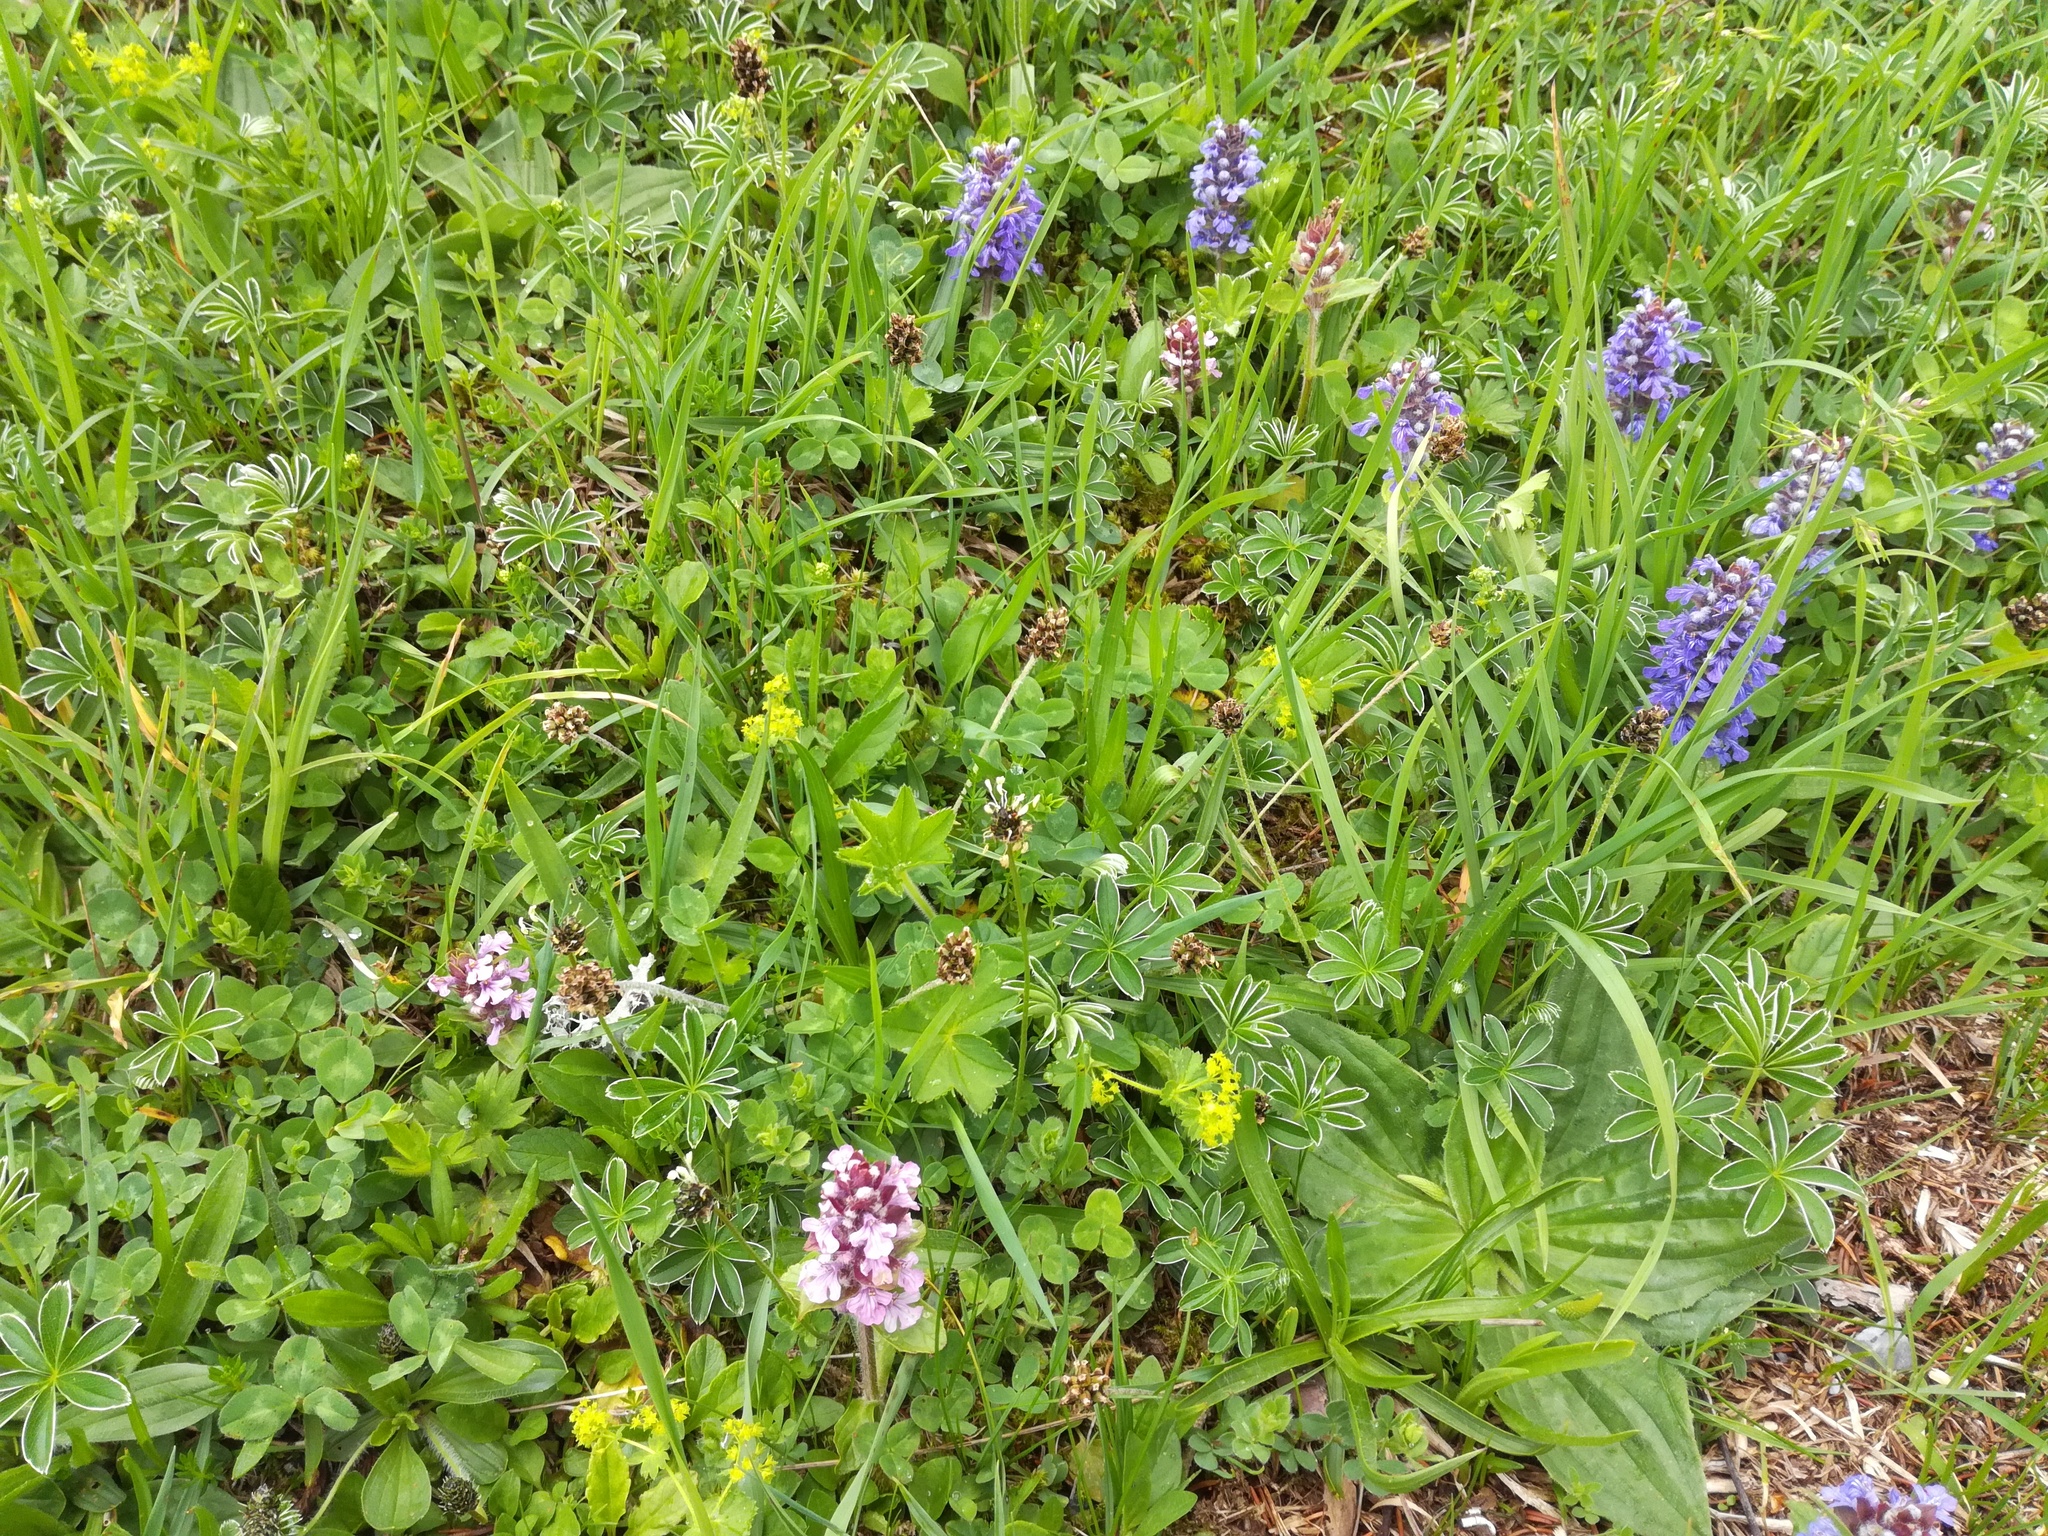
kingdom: Plantae
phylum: Tracheophyta
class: Magnoliopsida
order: Lamiales
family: Lamiaceae
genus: Ajuga
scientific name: Ajuga reptans
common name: Bugle
